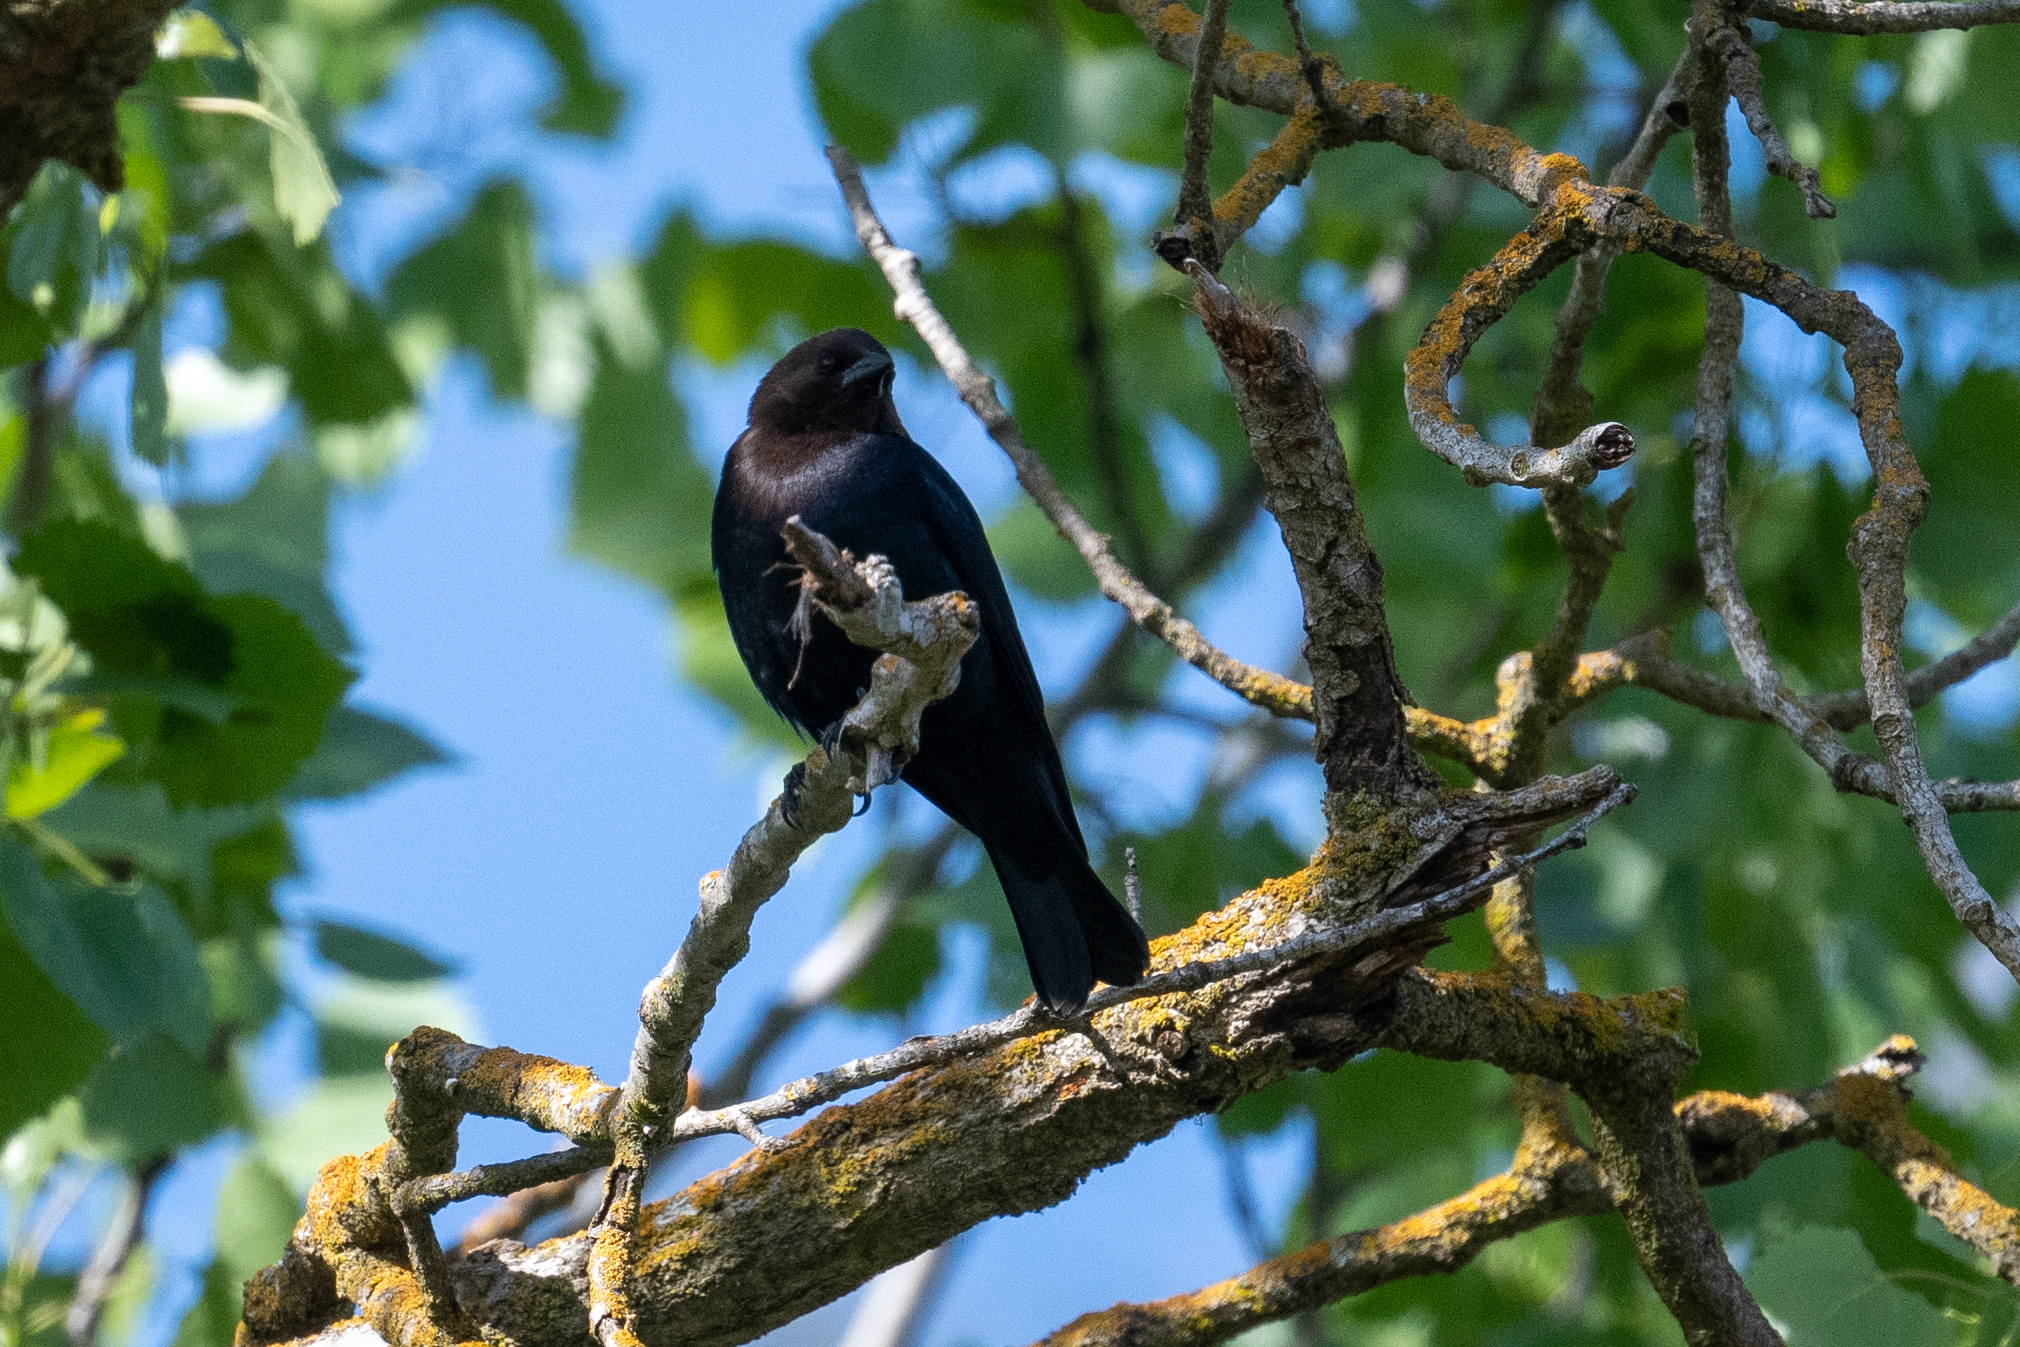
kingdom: Animalia
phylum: Chordata
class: Aves
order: Passeriformes
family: Icteridae
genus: Molothrus
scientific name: Molothrus ater
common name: Brown-headed cowbird
